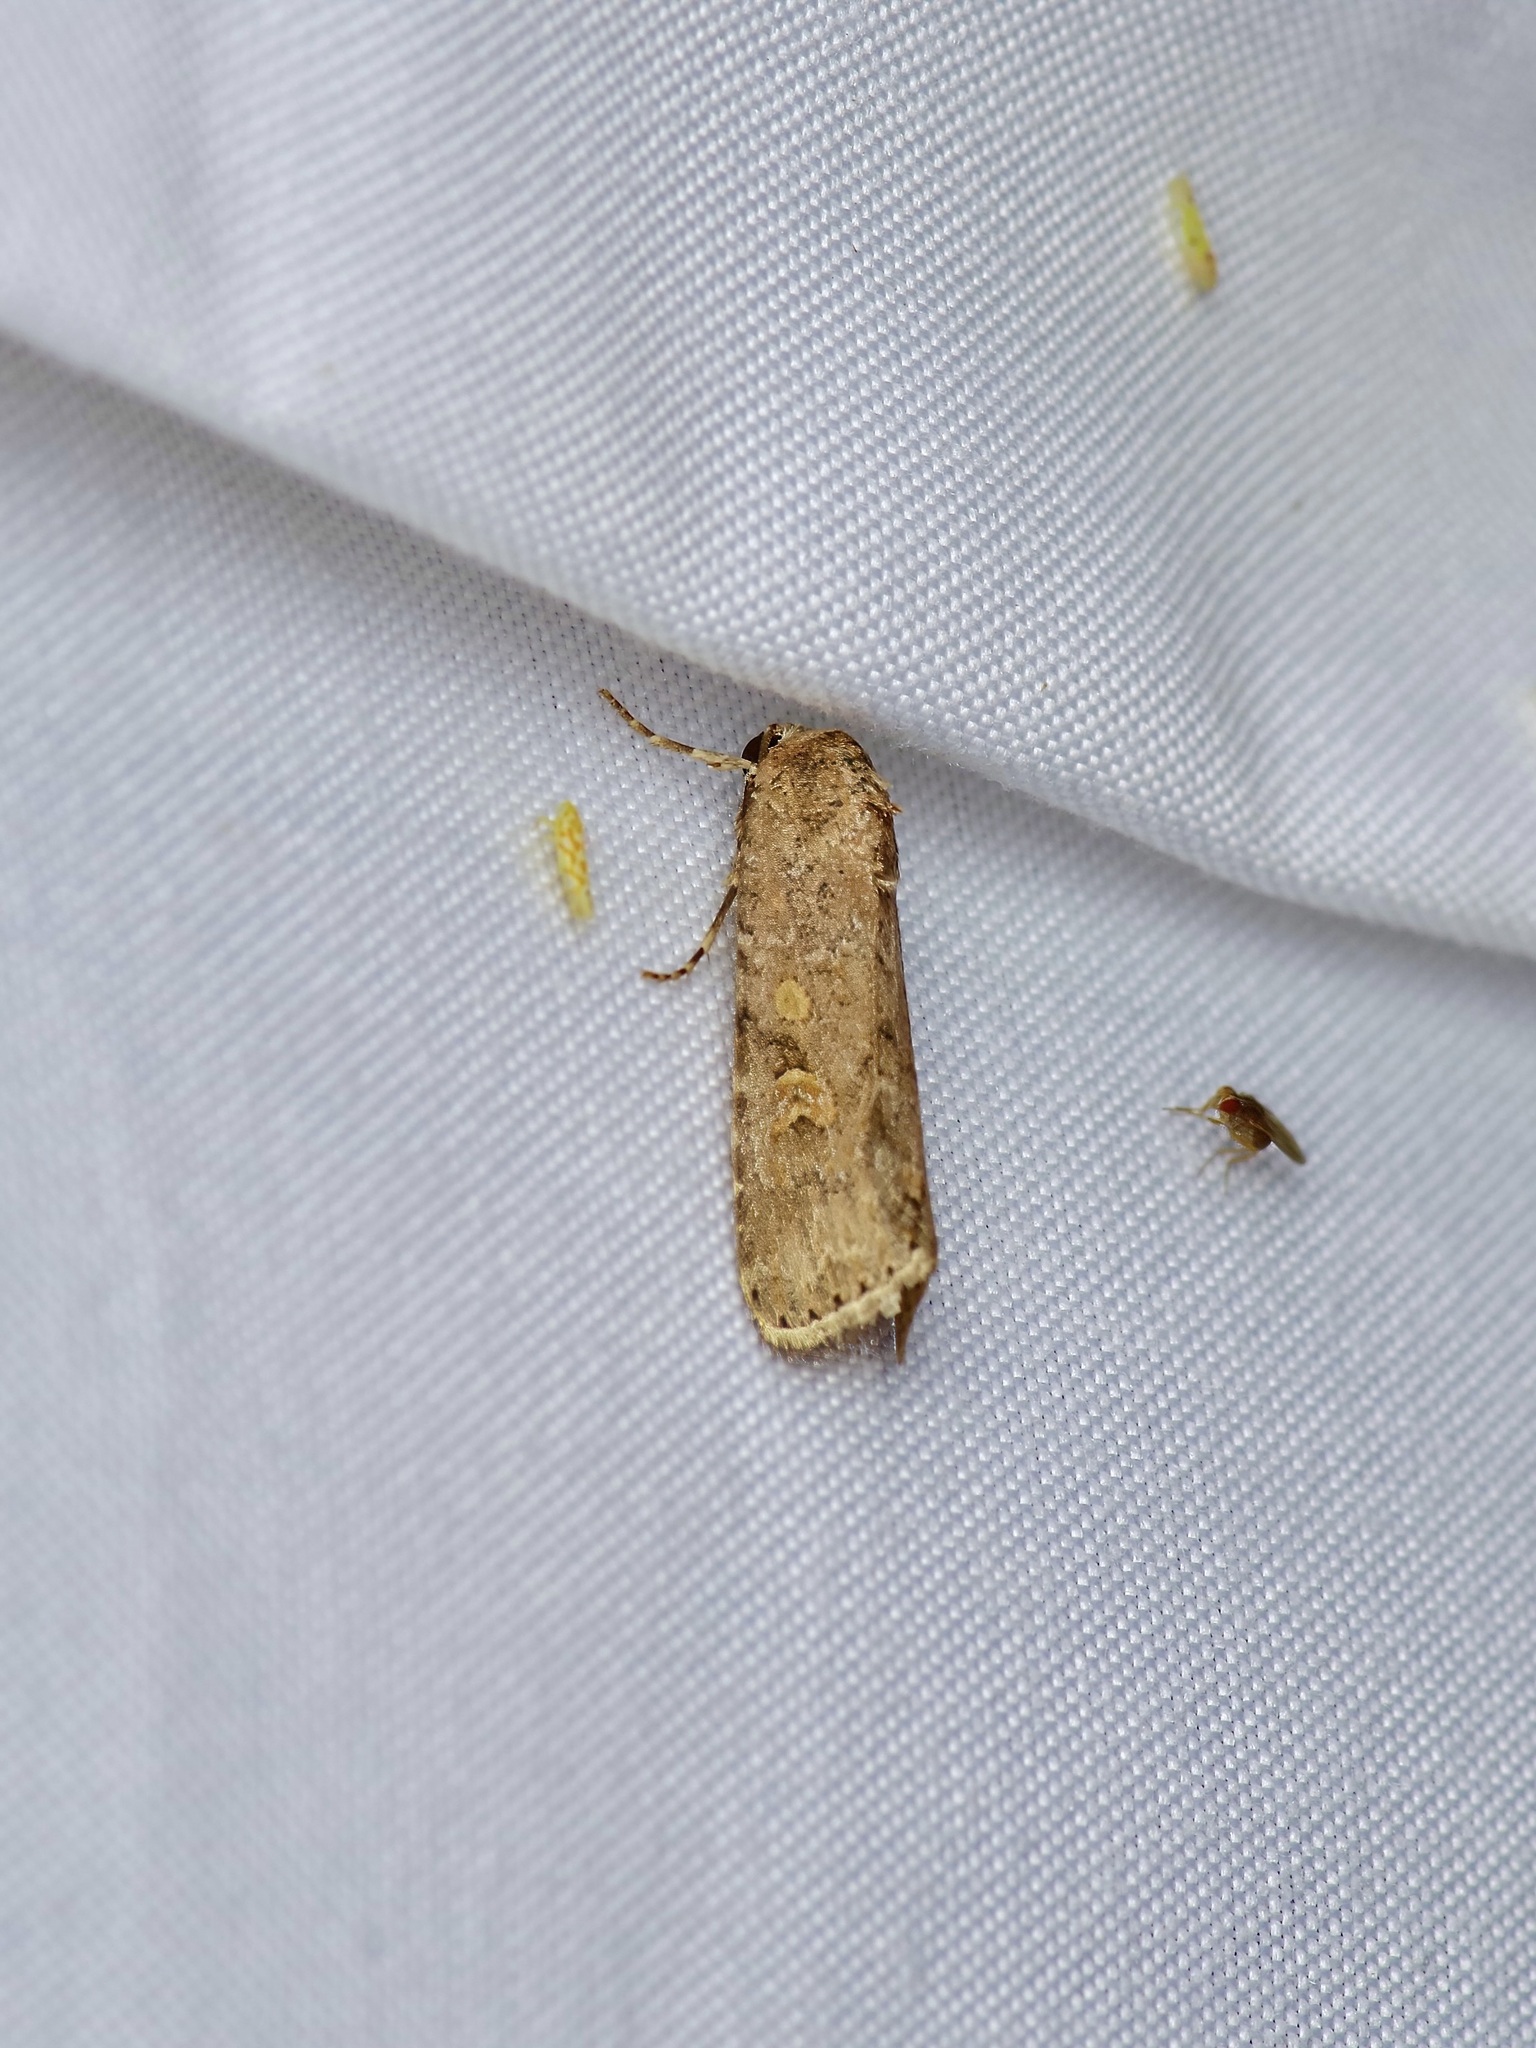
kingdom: Animalia
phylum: Arthropoda
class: Insecta
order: Lepidoptera
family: Noctuidae
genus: Spodoptera
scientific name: Spodoptera exigua
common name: Beet armyworm
